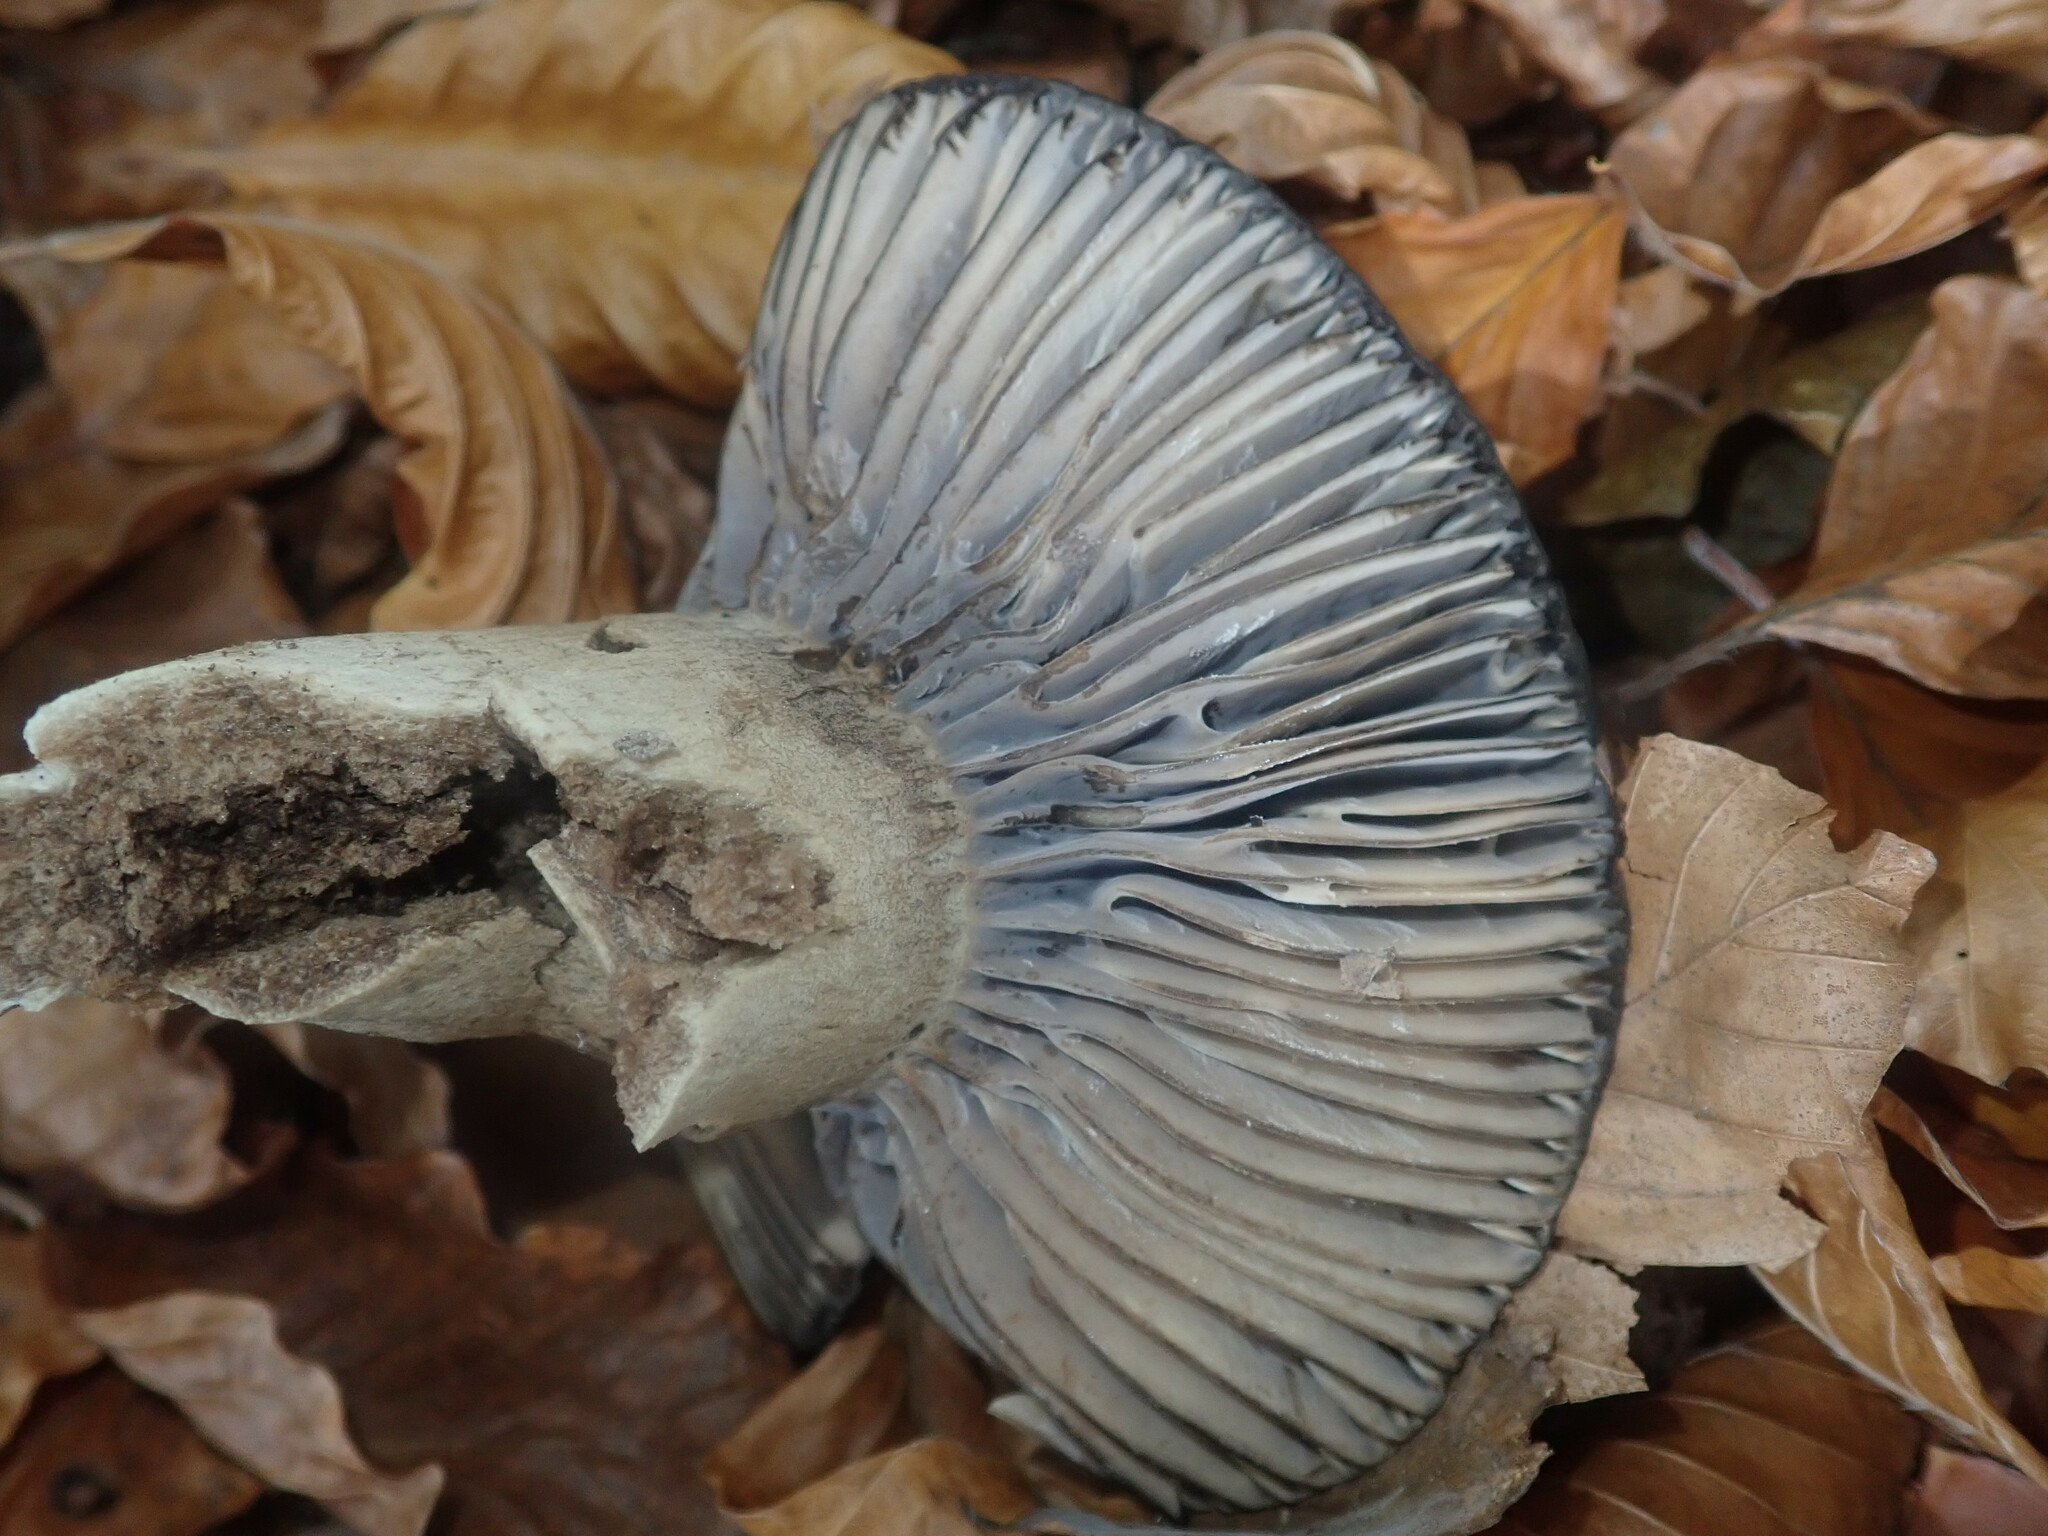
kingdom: Fungi
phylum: Basidiomycota
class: Agaricomycetes
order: Russulales
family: Russulaceae
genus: Russula
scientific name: Russula adusta
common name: Winecork brittlegill
